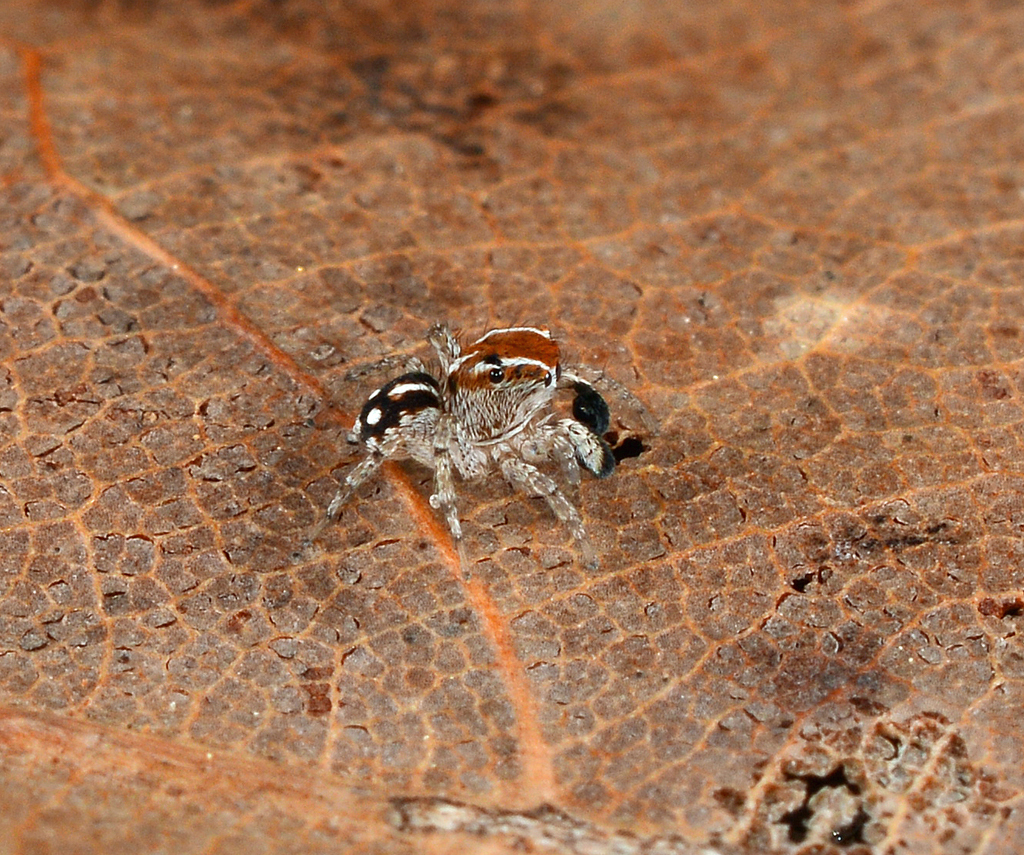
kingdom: Animalia
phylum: Arthropoda
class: Arachnida
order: Araneae
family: Salticidae
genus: Naphrys
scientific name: Naphrys xerophila
